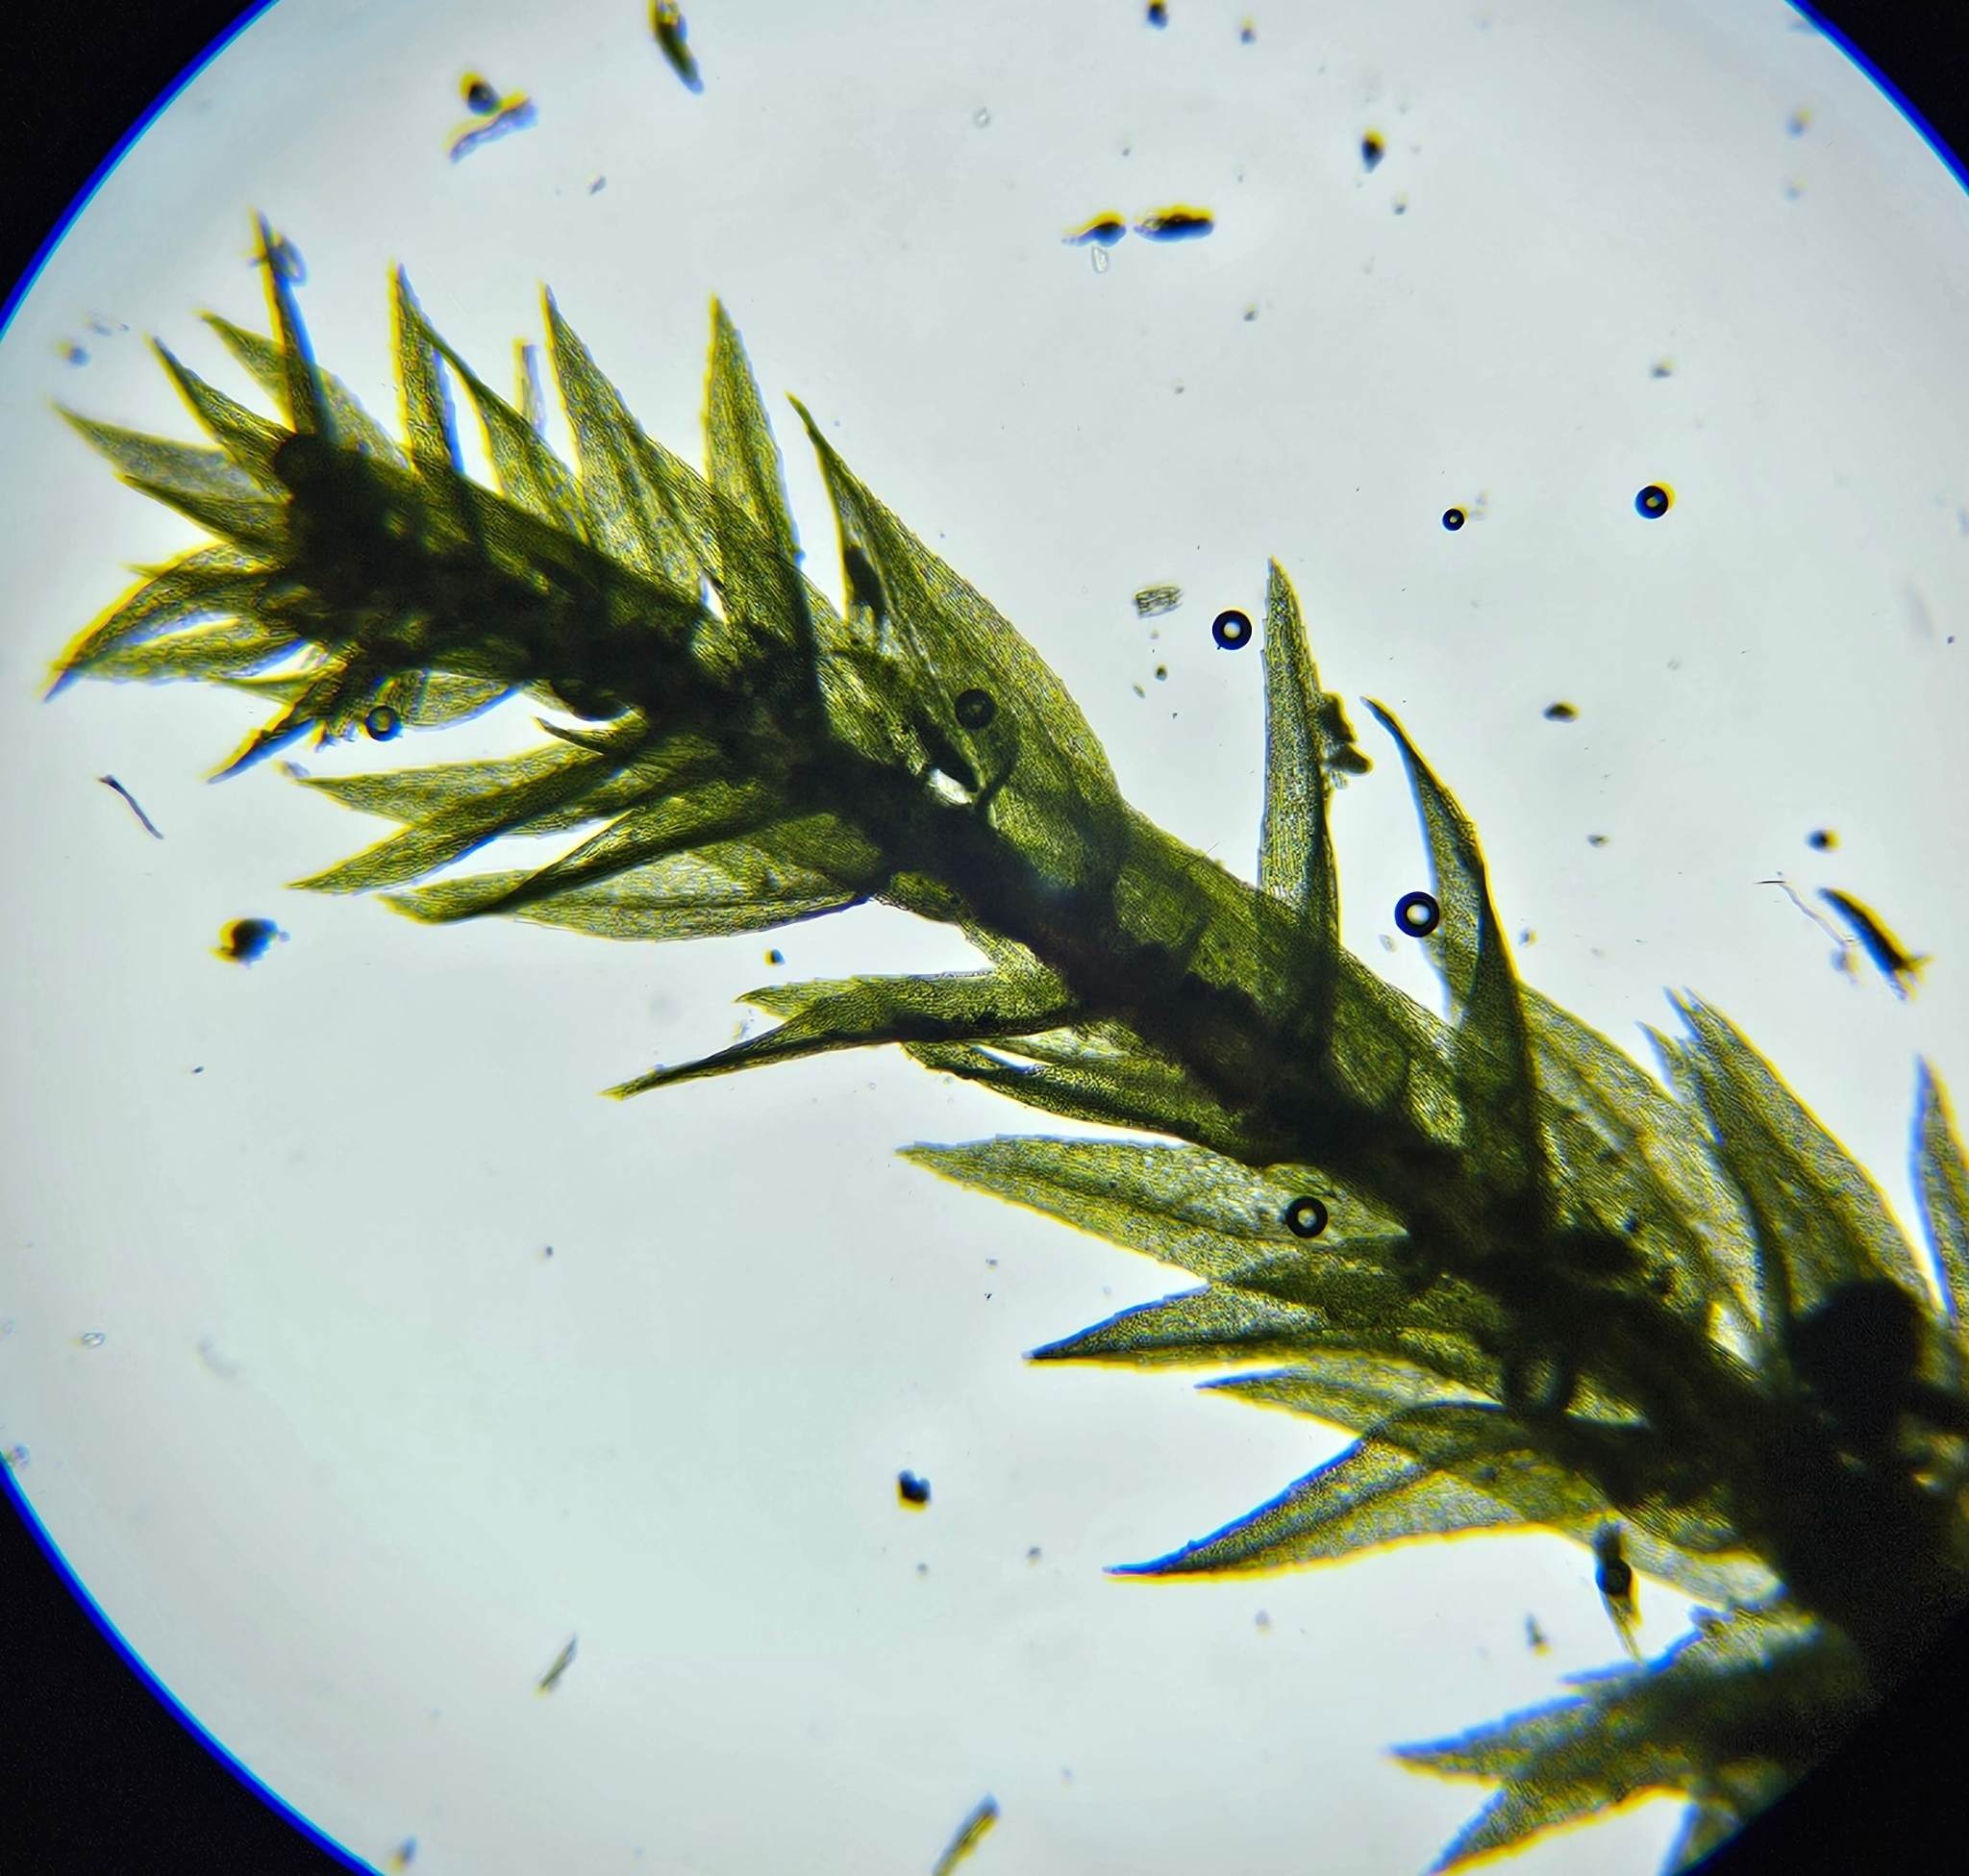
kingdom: Plantae
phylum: Bryophyta
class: Bryopsida
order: Bryales
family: Mniaceae
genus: Pohlia
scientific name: Pohlia annotina
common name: Pale-fruited nodding moss
